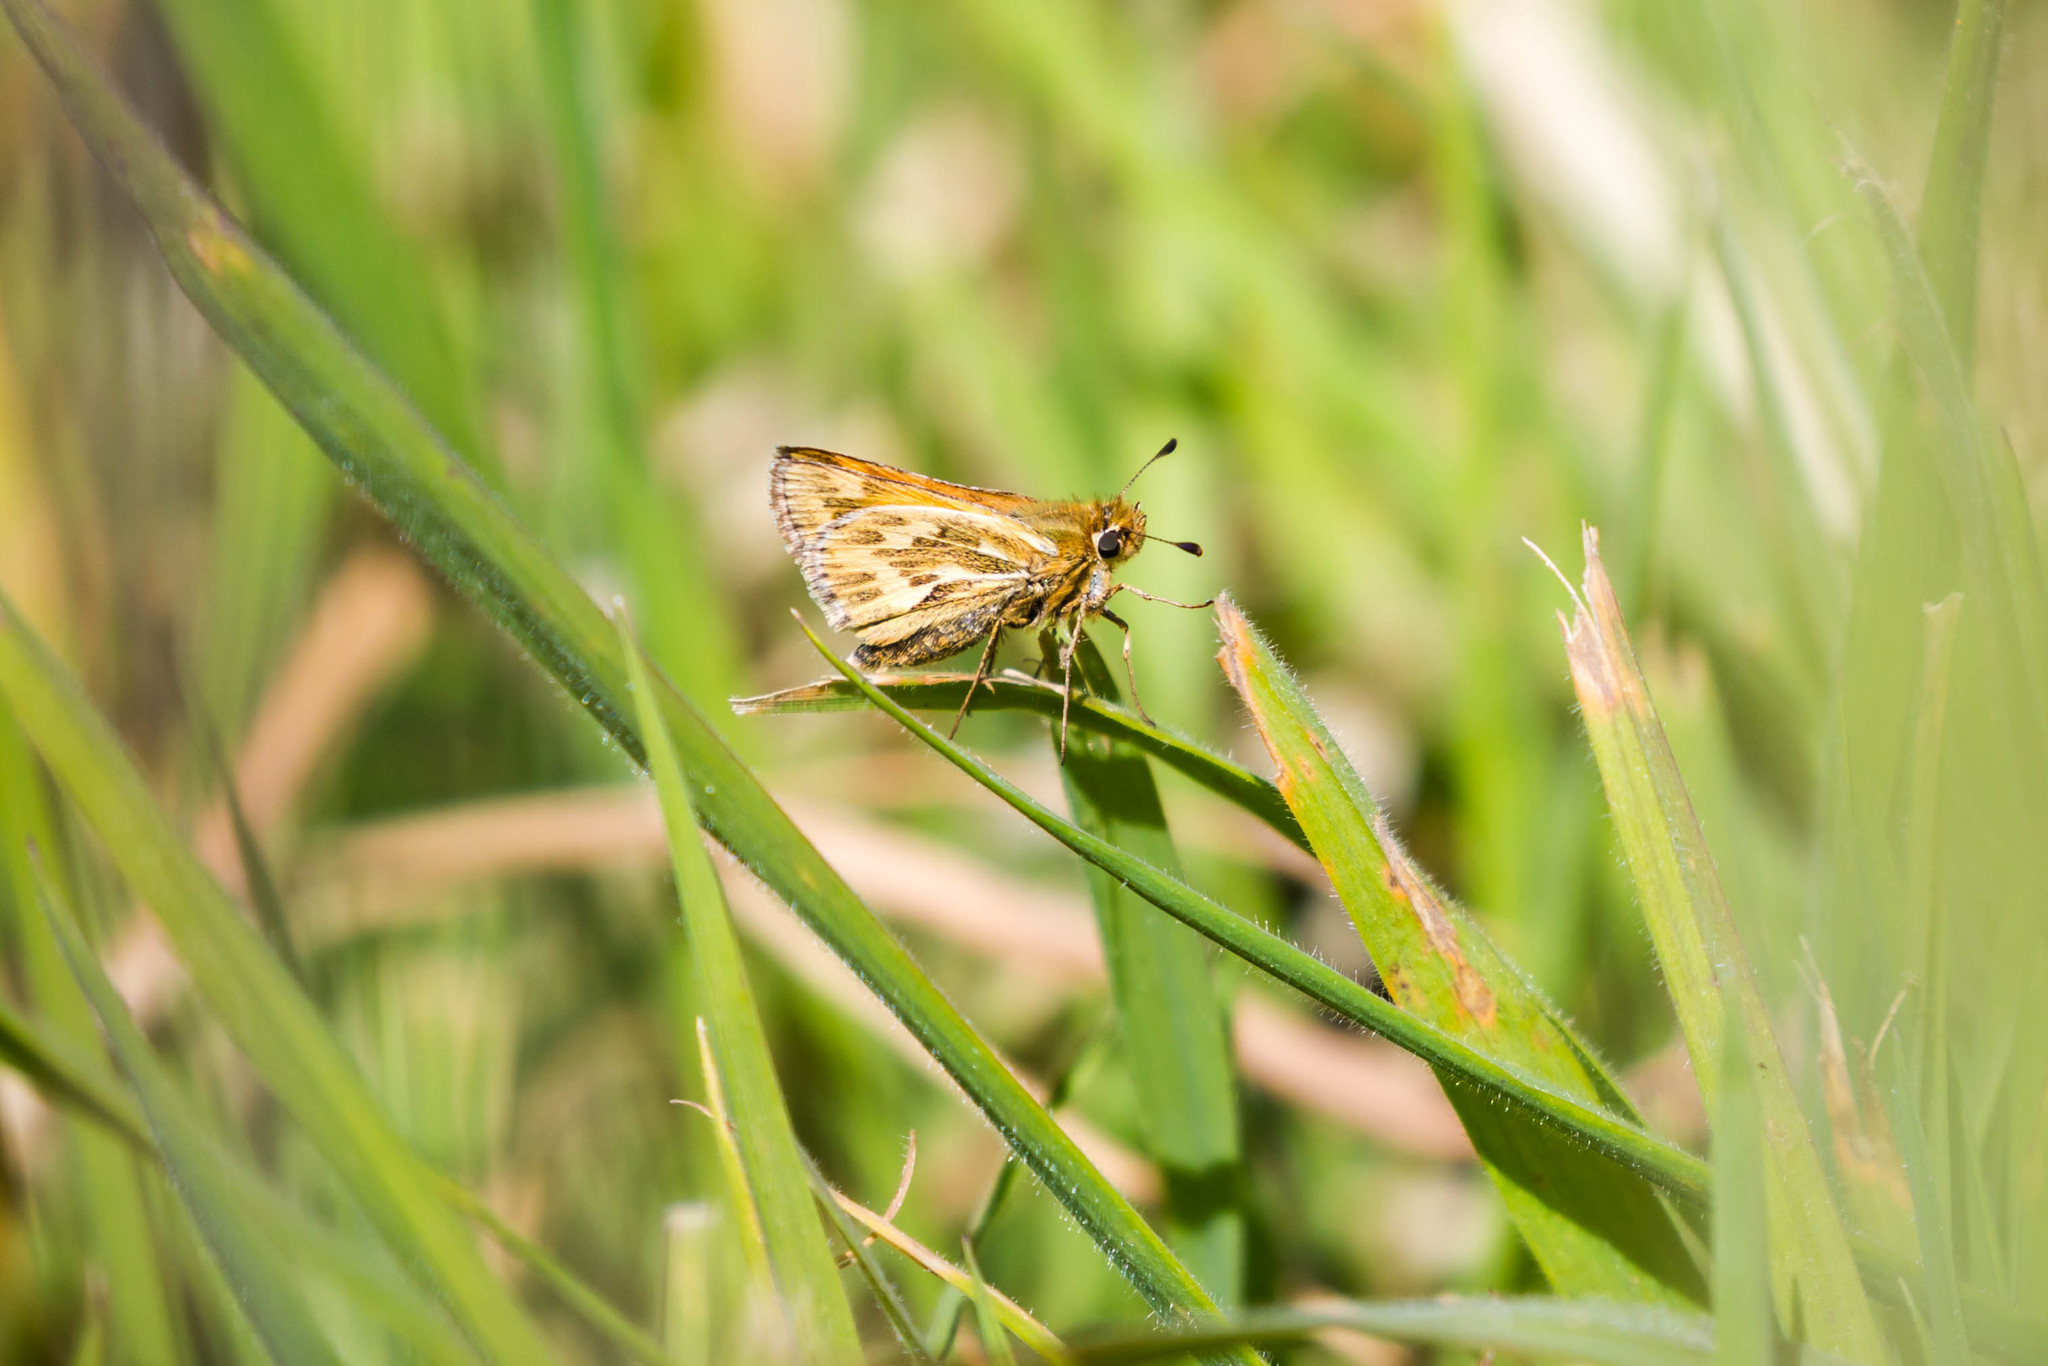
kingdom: Animalia
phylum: Arthropoda
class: Insecta
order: Lepidoptera
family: Hesperiidae
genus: Polites
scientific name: Polites sabuleti
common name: Sandhill skipper
